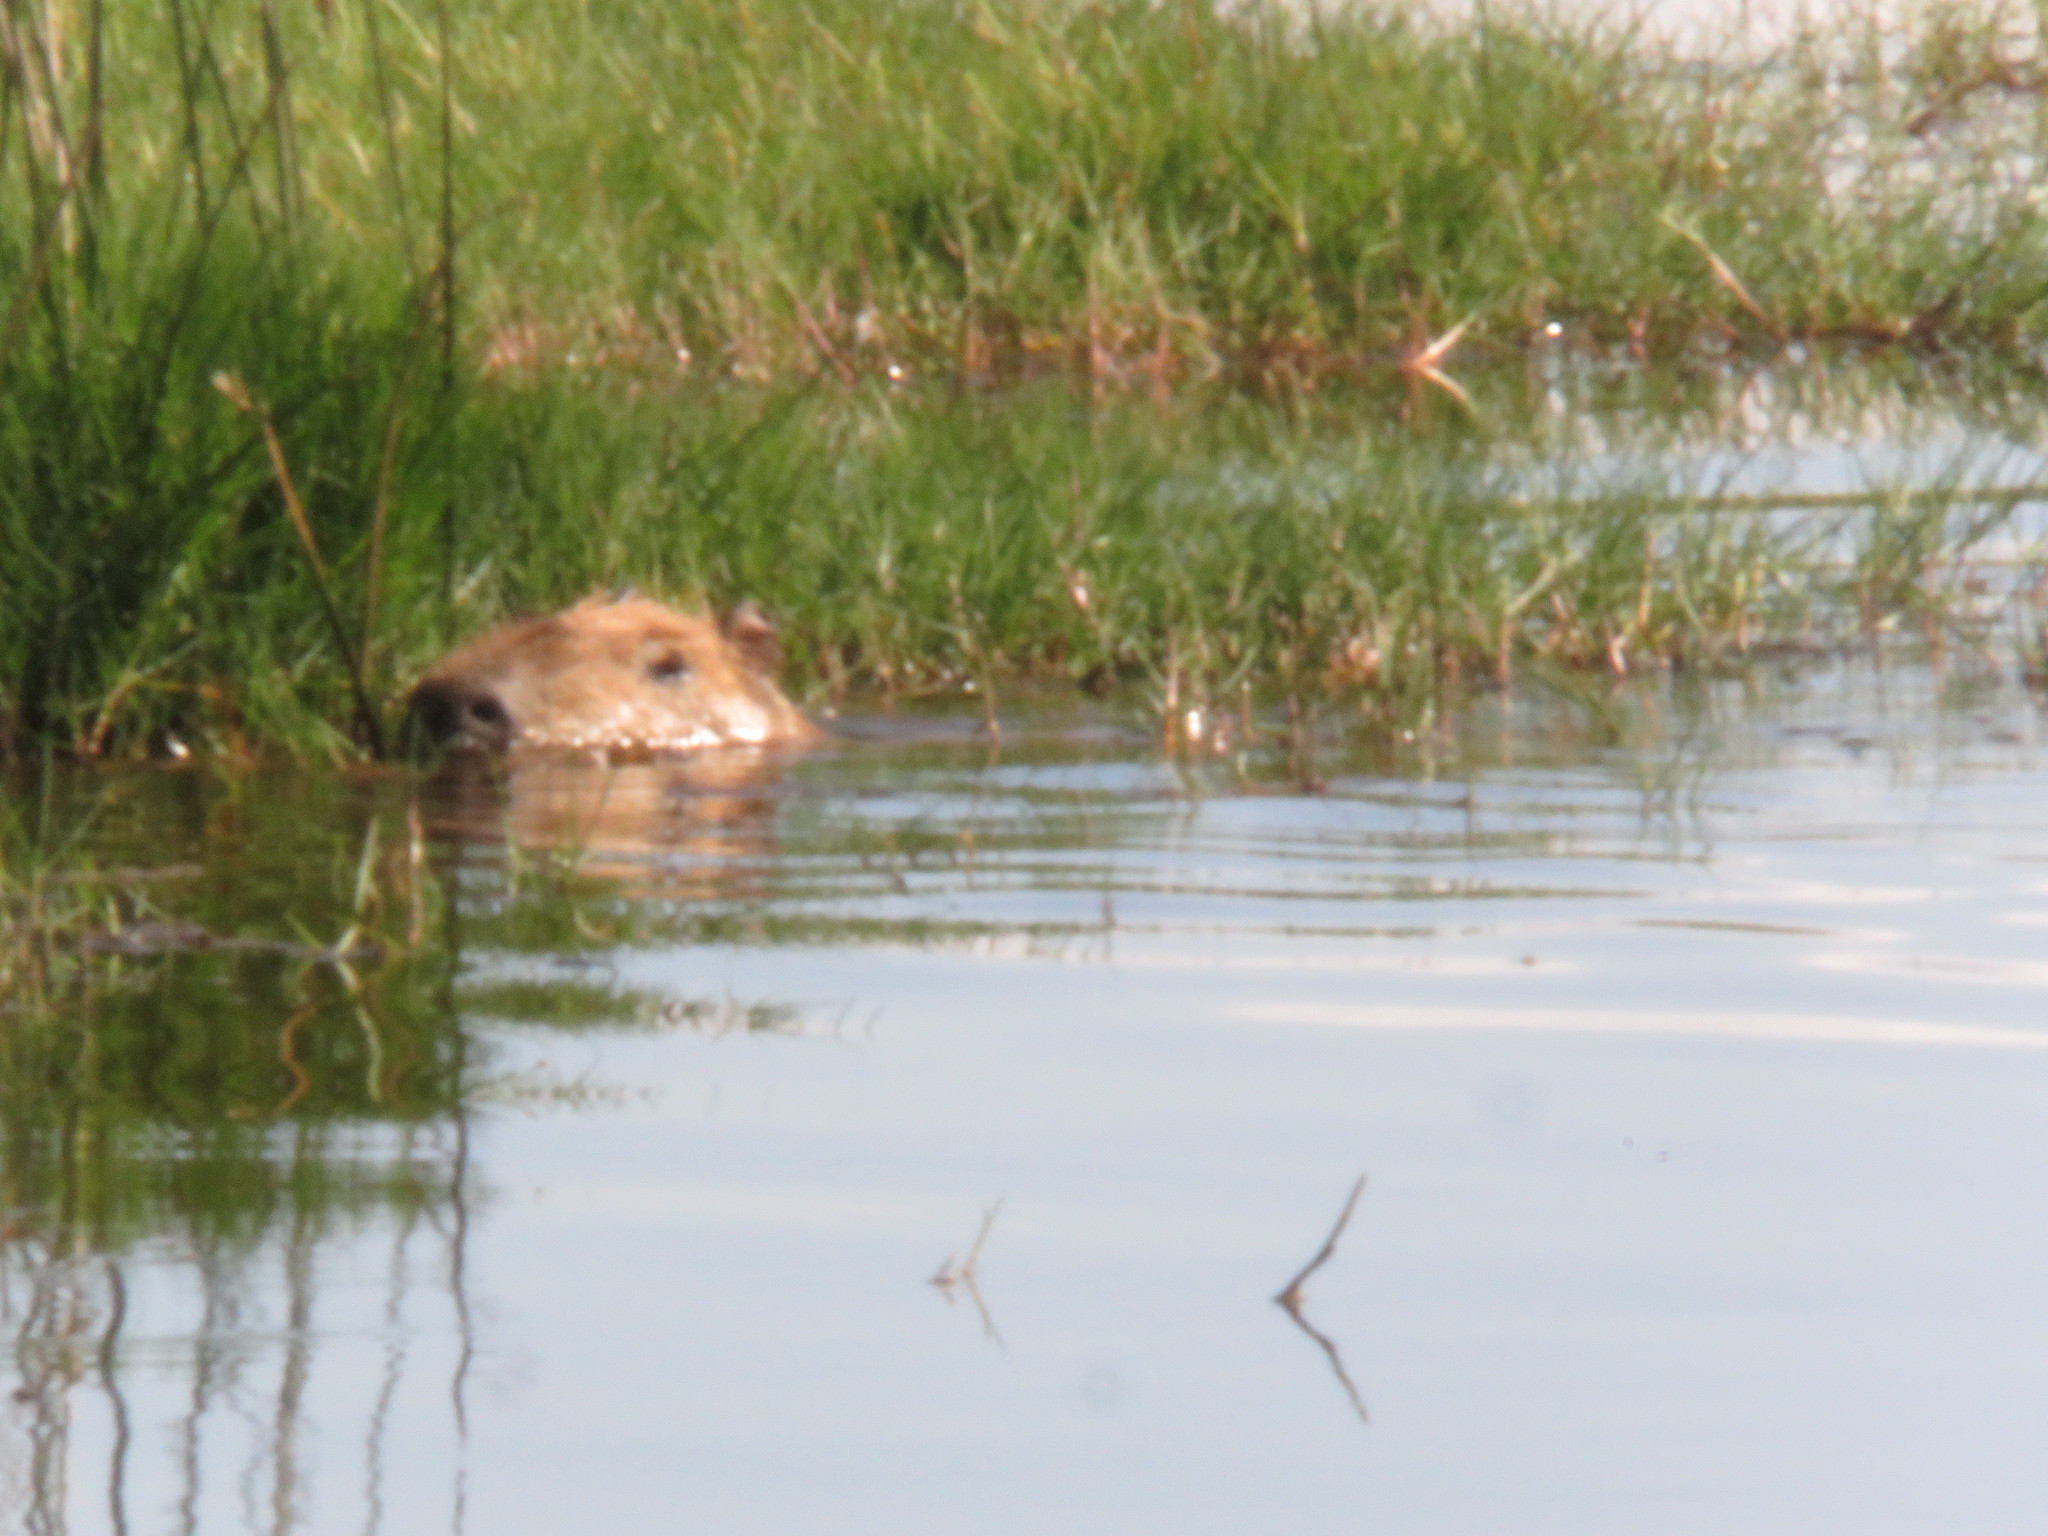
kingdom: Animalia
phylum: Chordata
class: Mammalia
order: Rodentia
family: Caviidae
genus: Hydrochoerus
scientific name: Hydrochoerus hydrochaeris
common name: Capybara
